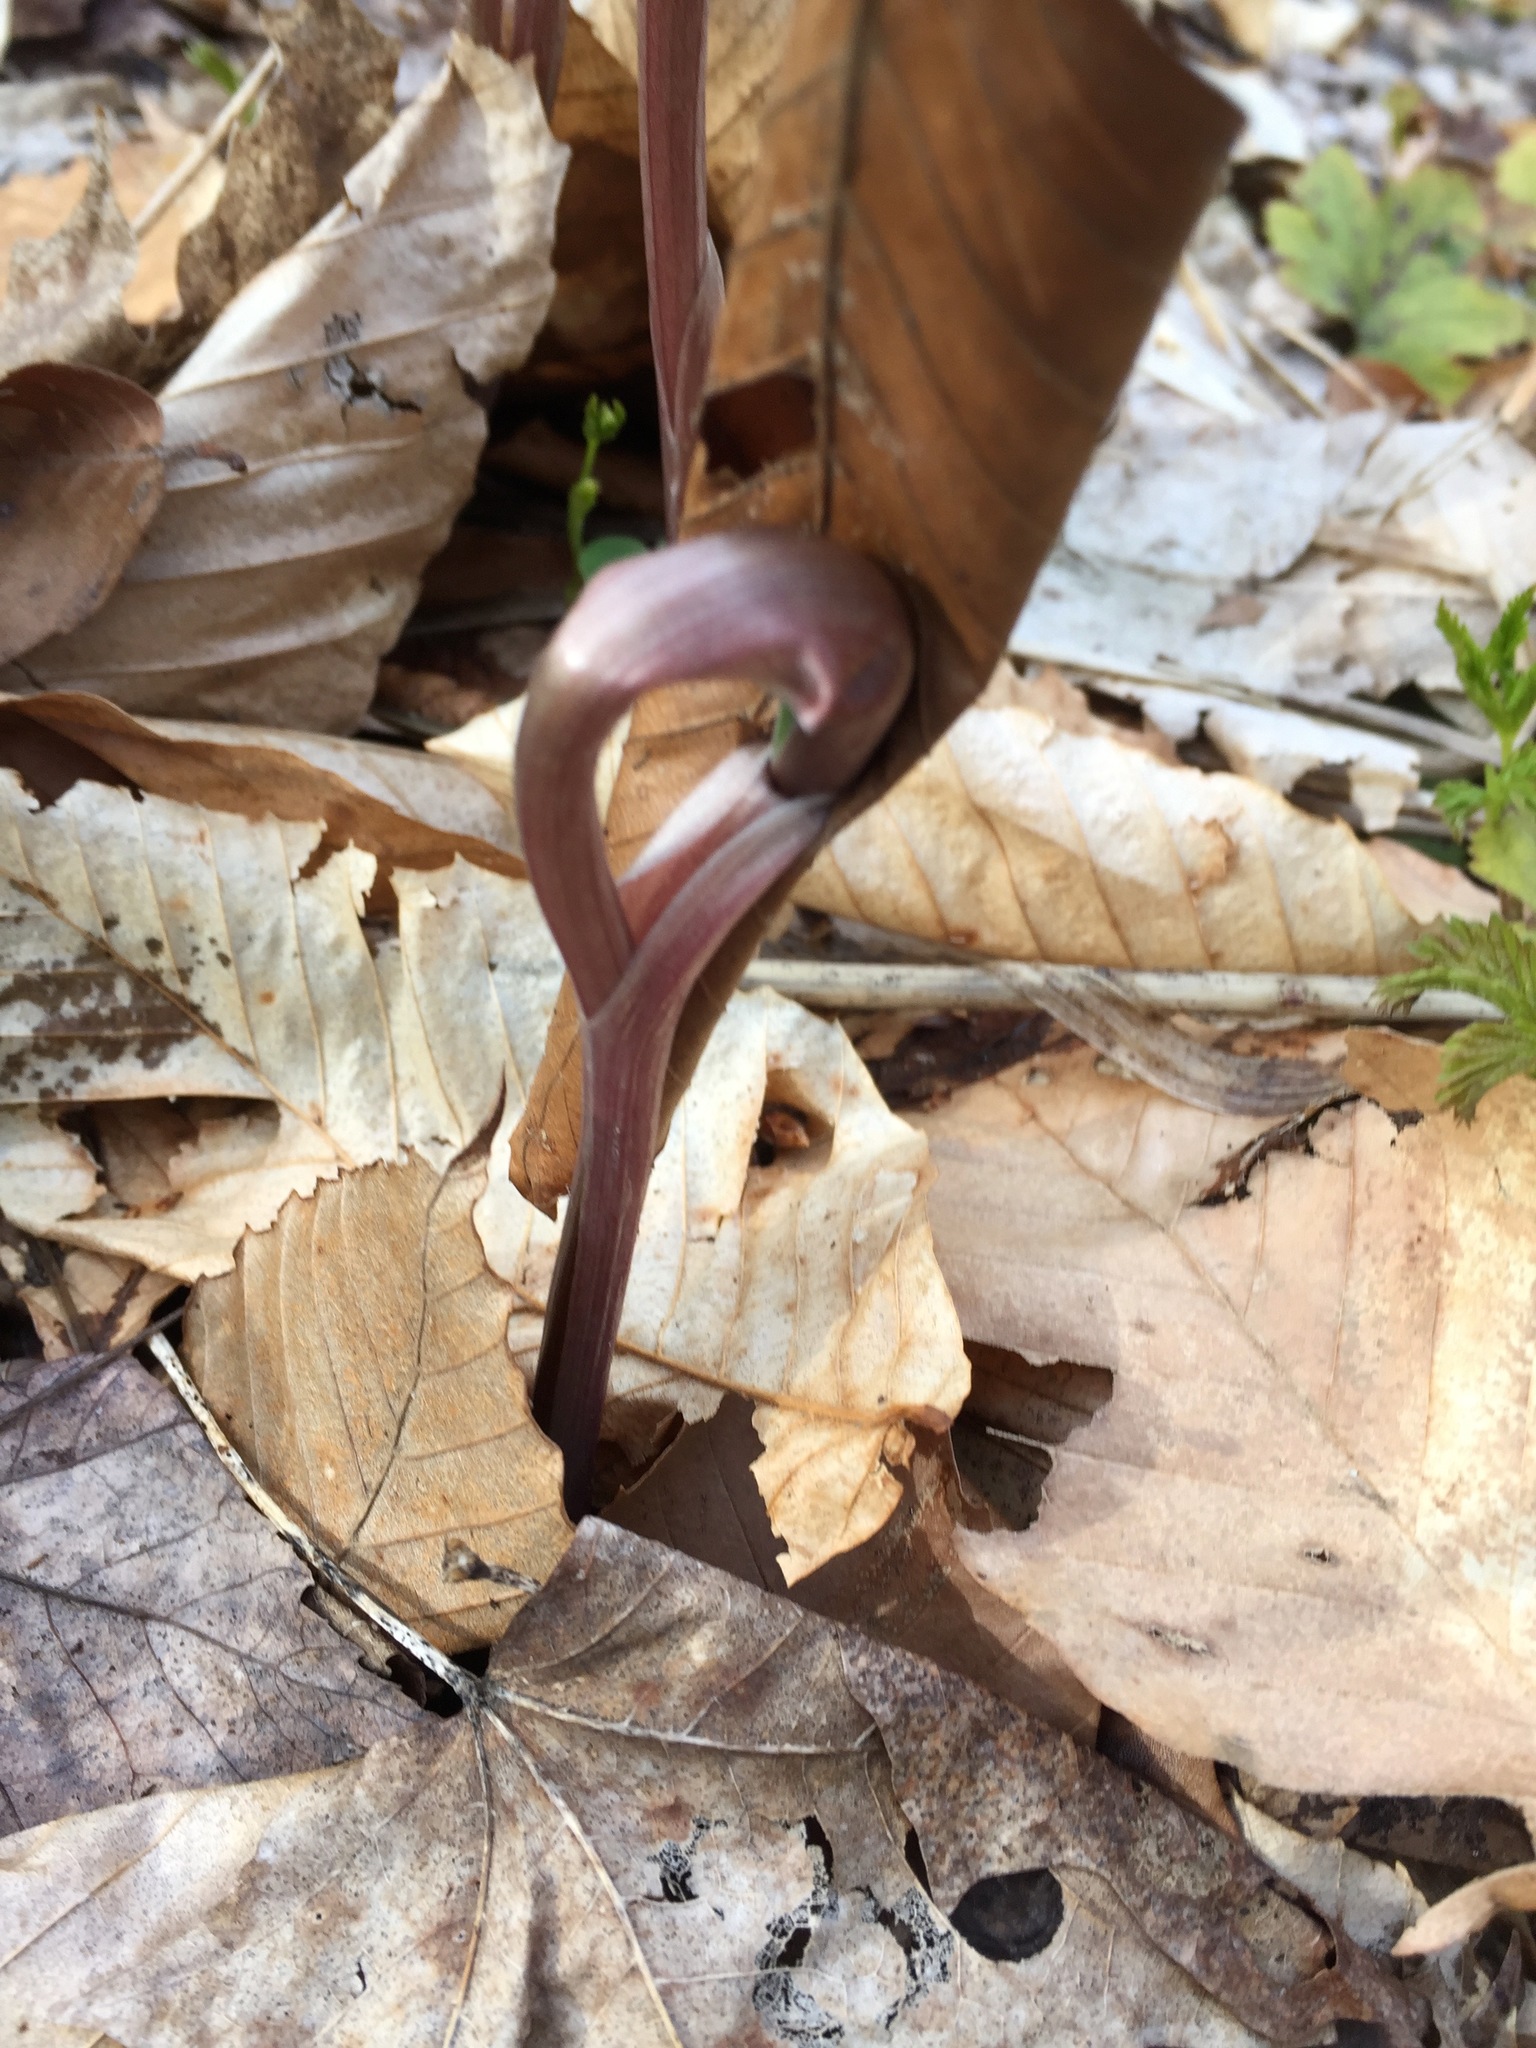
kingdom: Plantae
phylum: Tracheophyta
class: Liliopsida
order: Asparagales
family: Asparagaceae
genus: Maianthemum
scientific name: Maianthemum racemosum
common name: False spikenard
